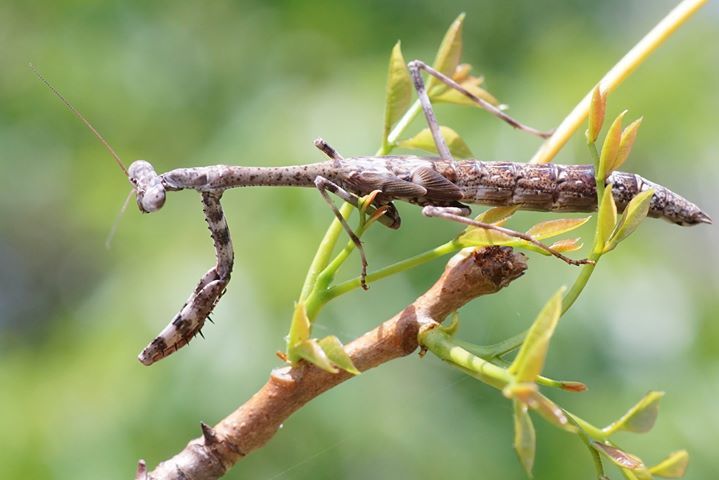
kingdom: Animalia
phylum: Arthropoda
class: Insecta
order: Mantodea
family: Mantidae
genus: Stagmomantis
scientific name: Stagmomantis carolina
